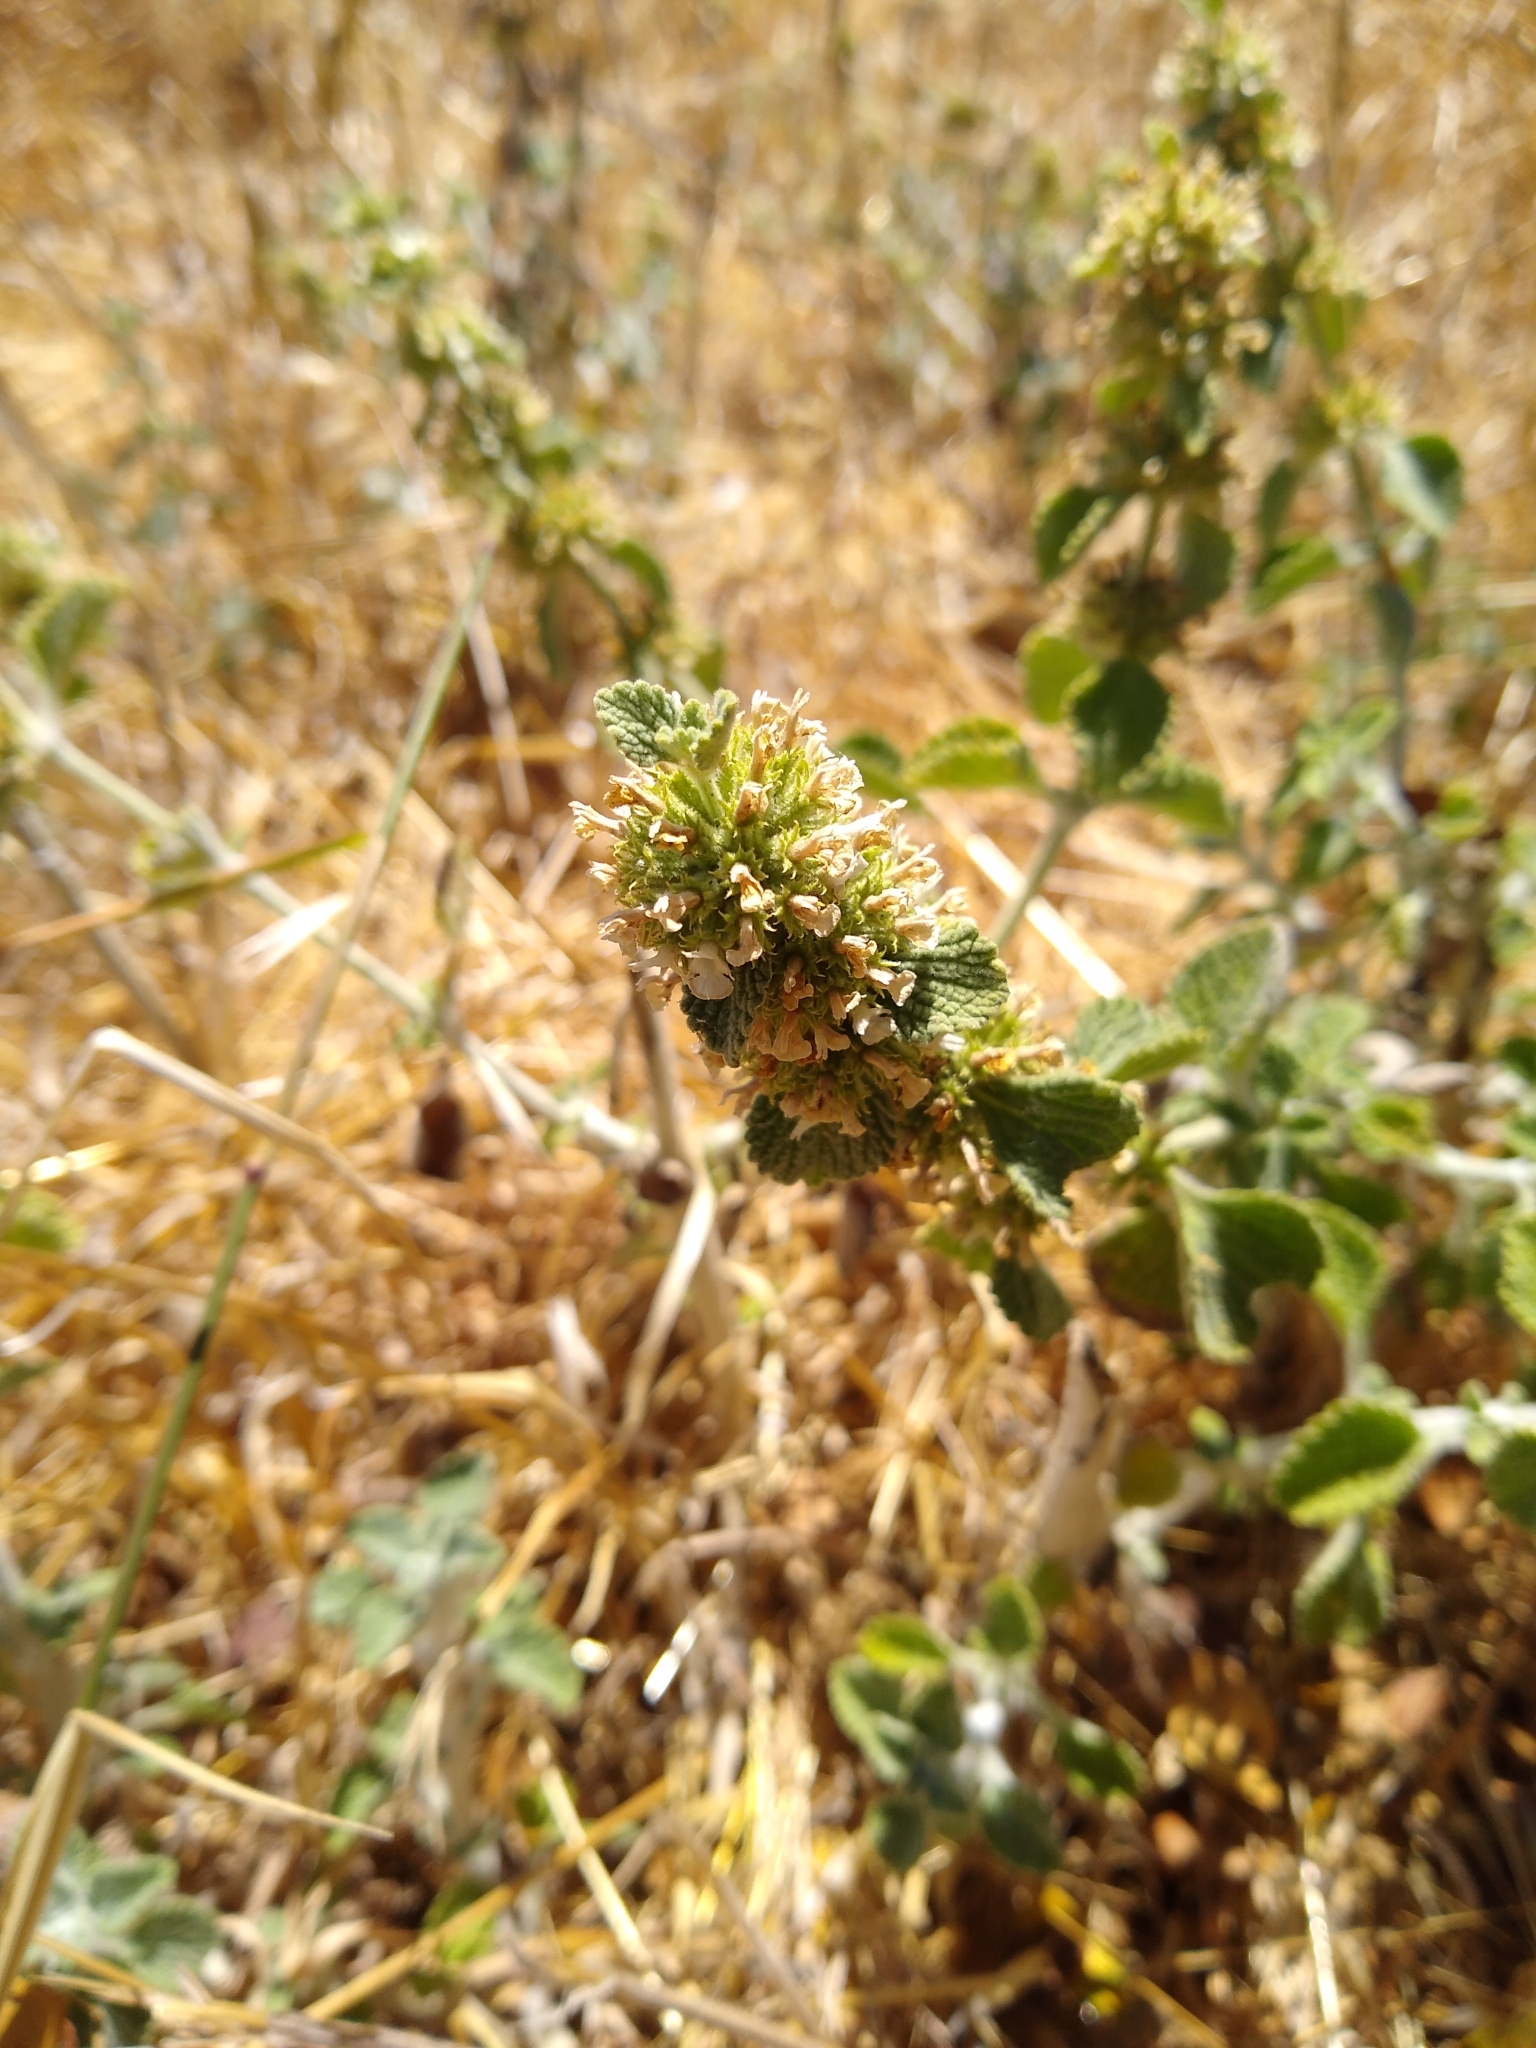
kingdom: Plantae
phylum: Tracheophyta
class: Magnoliopsida
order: Lamiales
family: Lamiaceae
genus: Marrubium
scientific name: Marrubium vulgare
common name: Horehound
